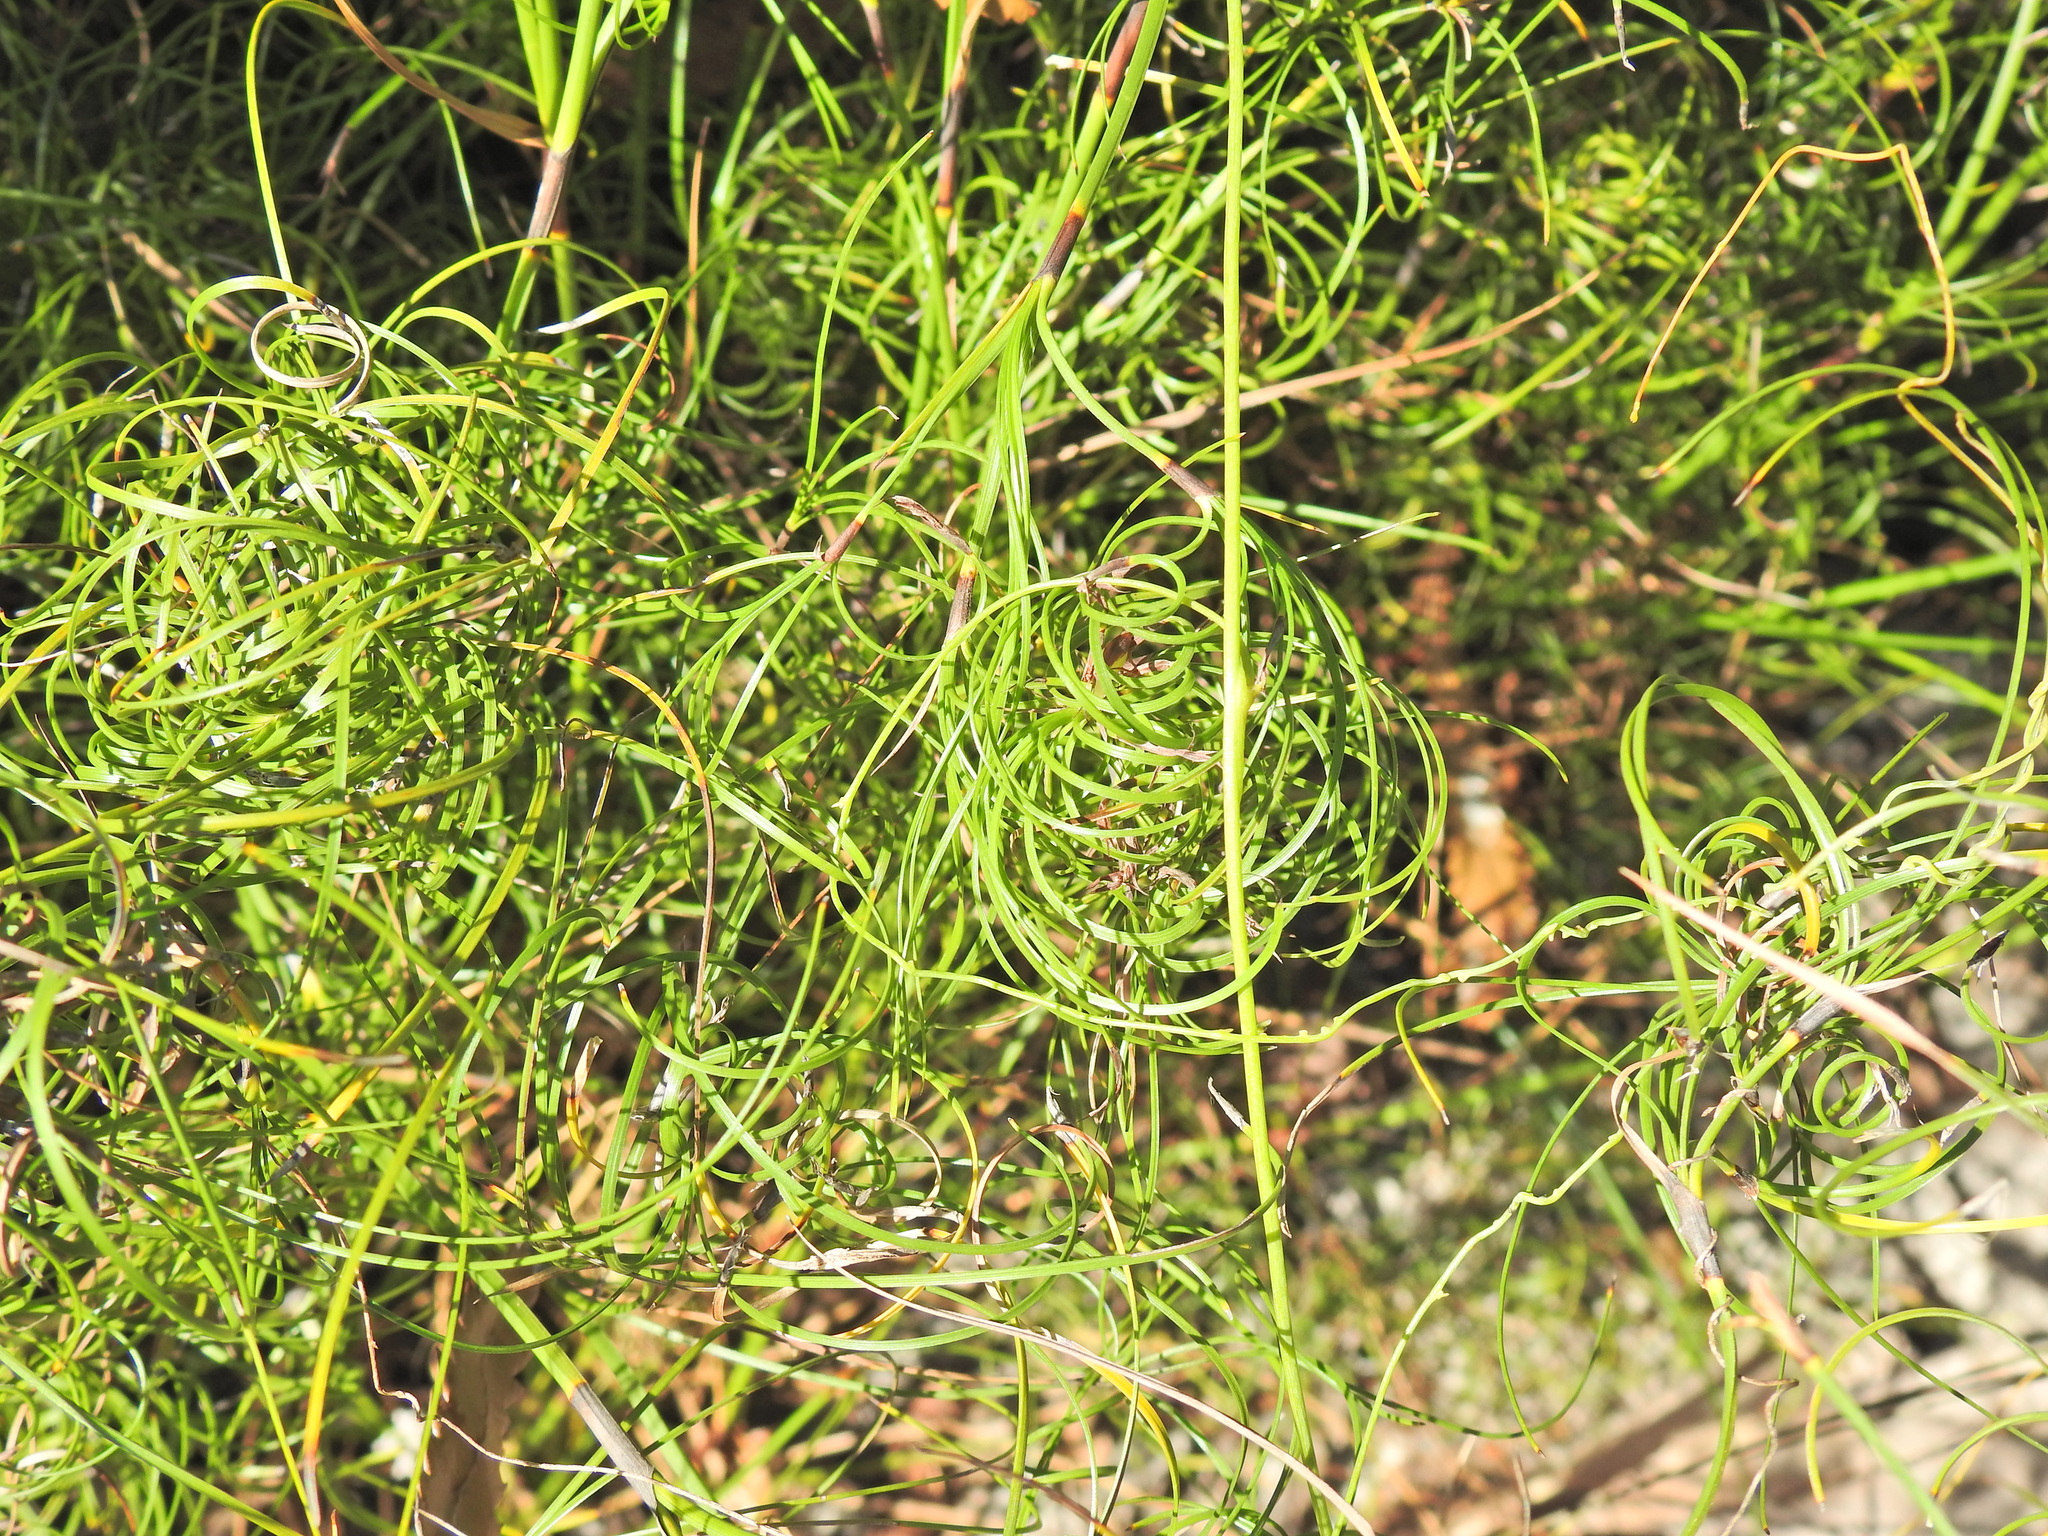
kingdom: Plantae
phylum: Tracheophyta
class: Liliopsida
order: Poales
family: Cyperaceae
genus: Caustis
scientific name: Caustis recurvata
